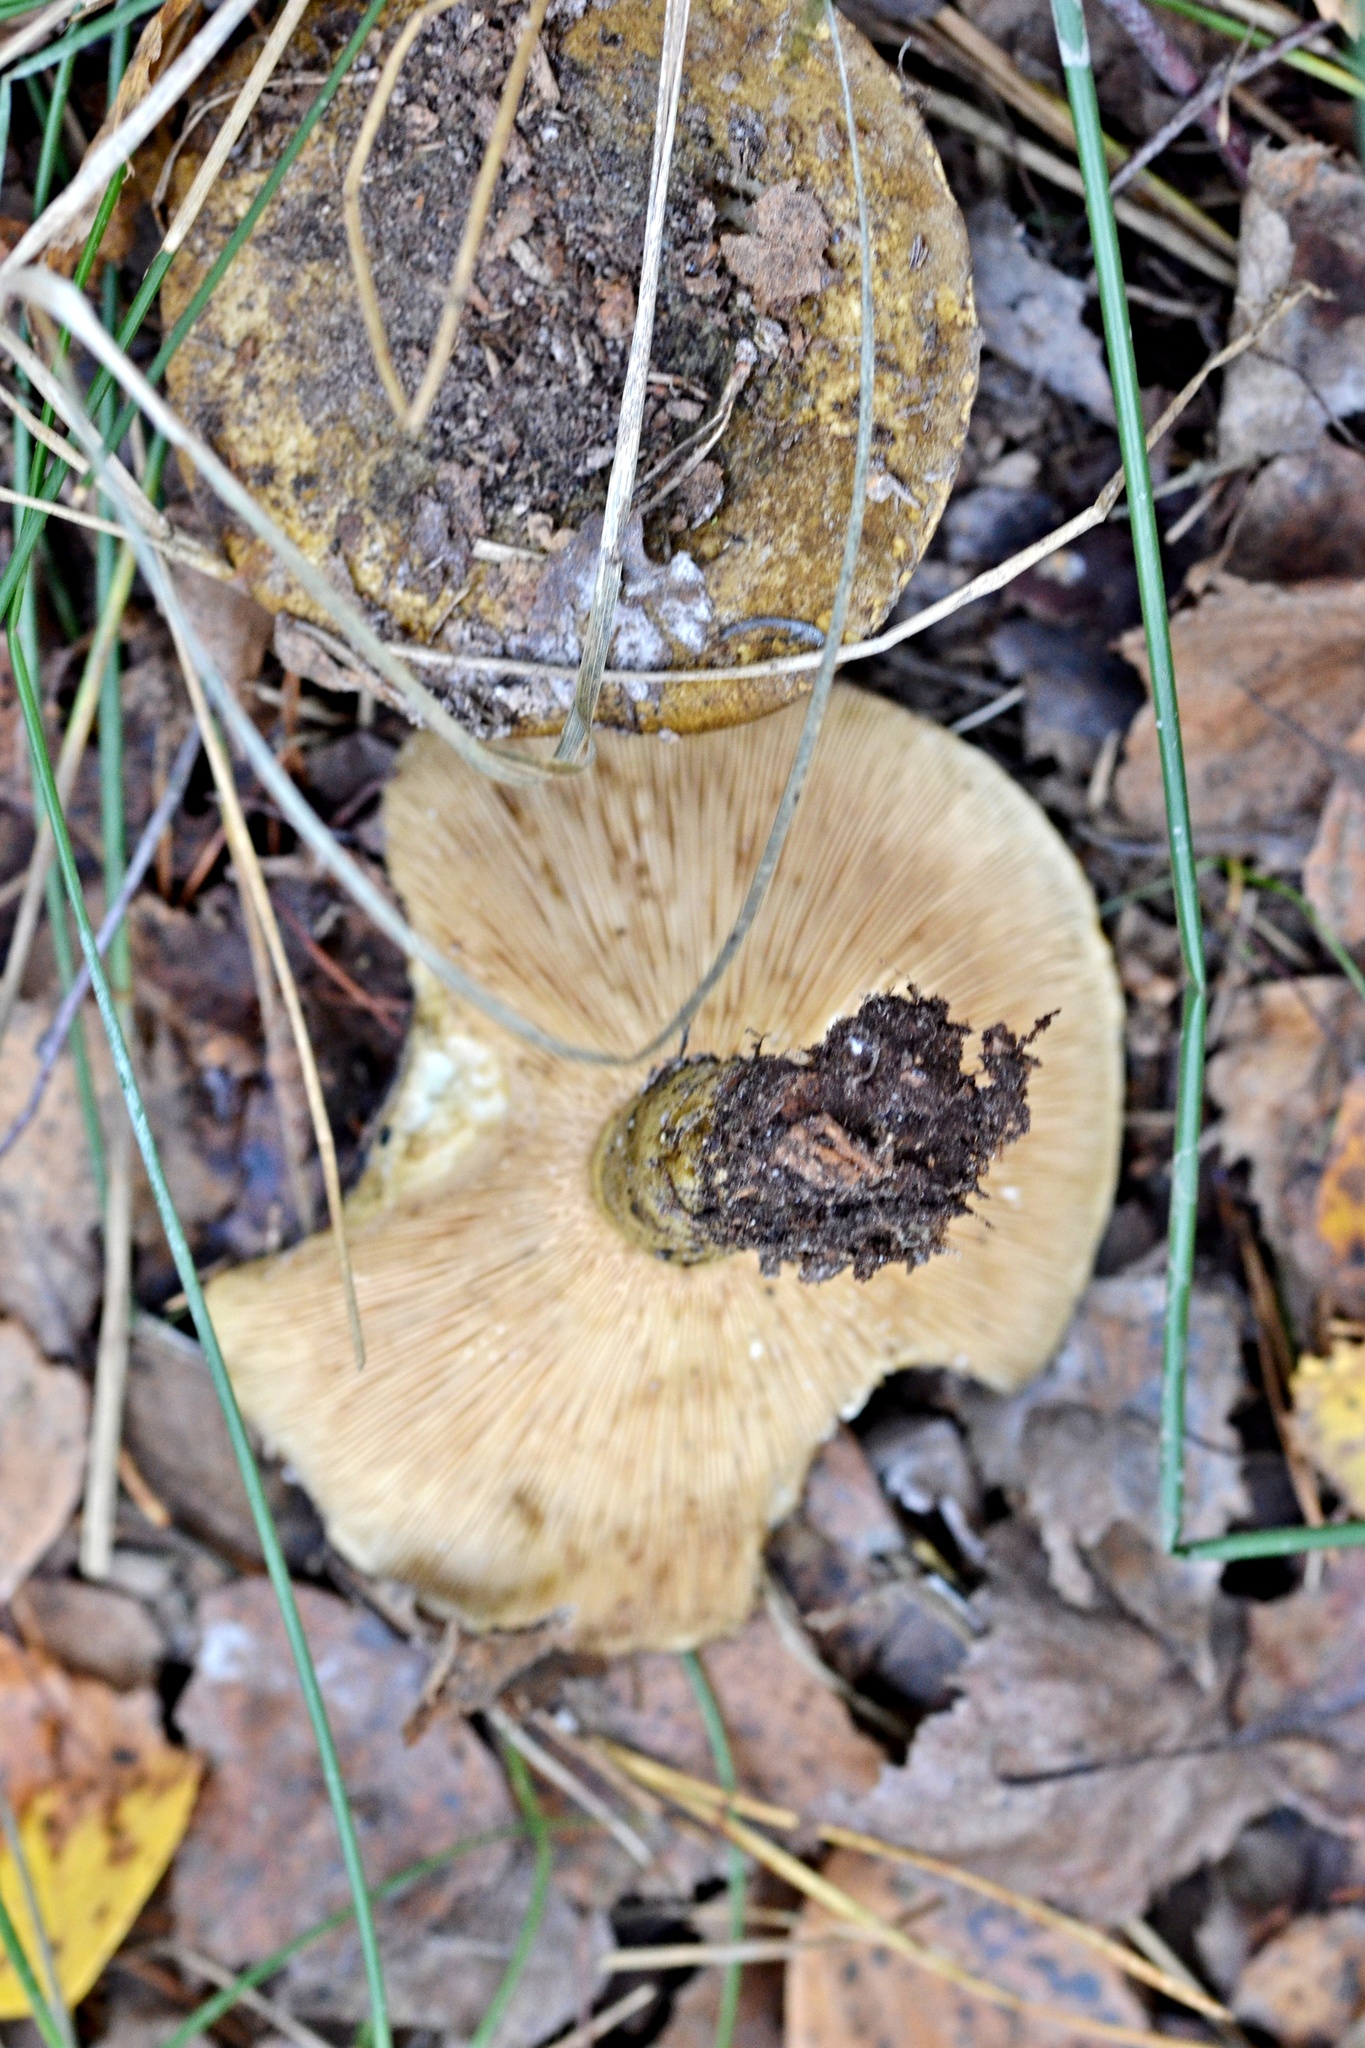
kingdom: Fungi
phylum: Basidiomycota
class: Agaricomycetes
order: Russulales
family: Russulaceae
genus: Lactarius
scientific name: Lactarius turpis
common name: Ugly milk-cap
